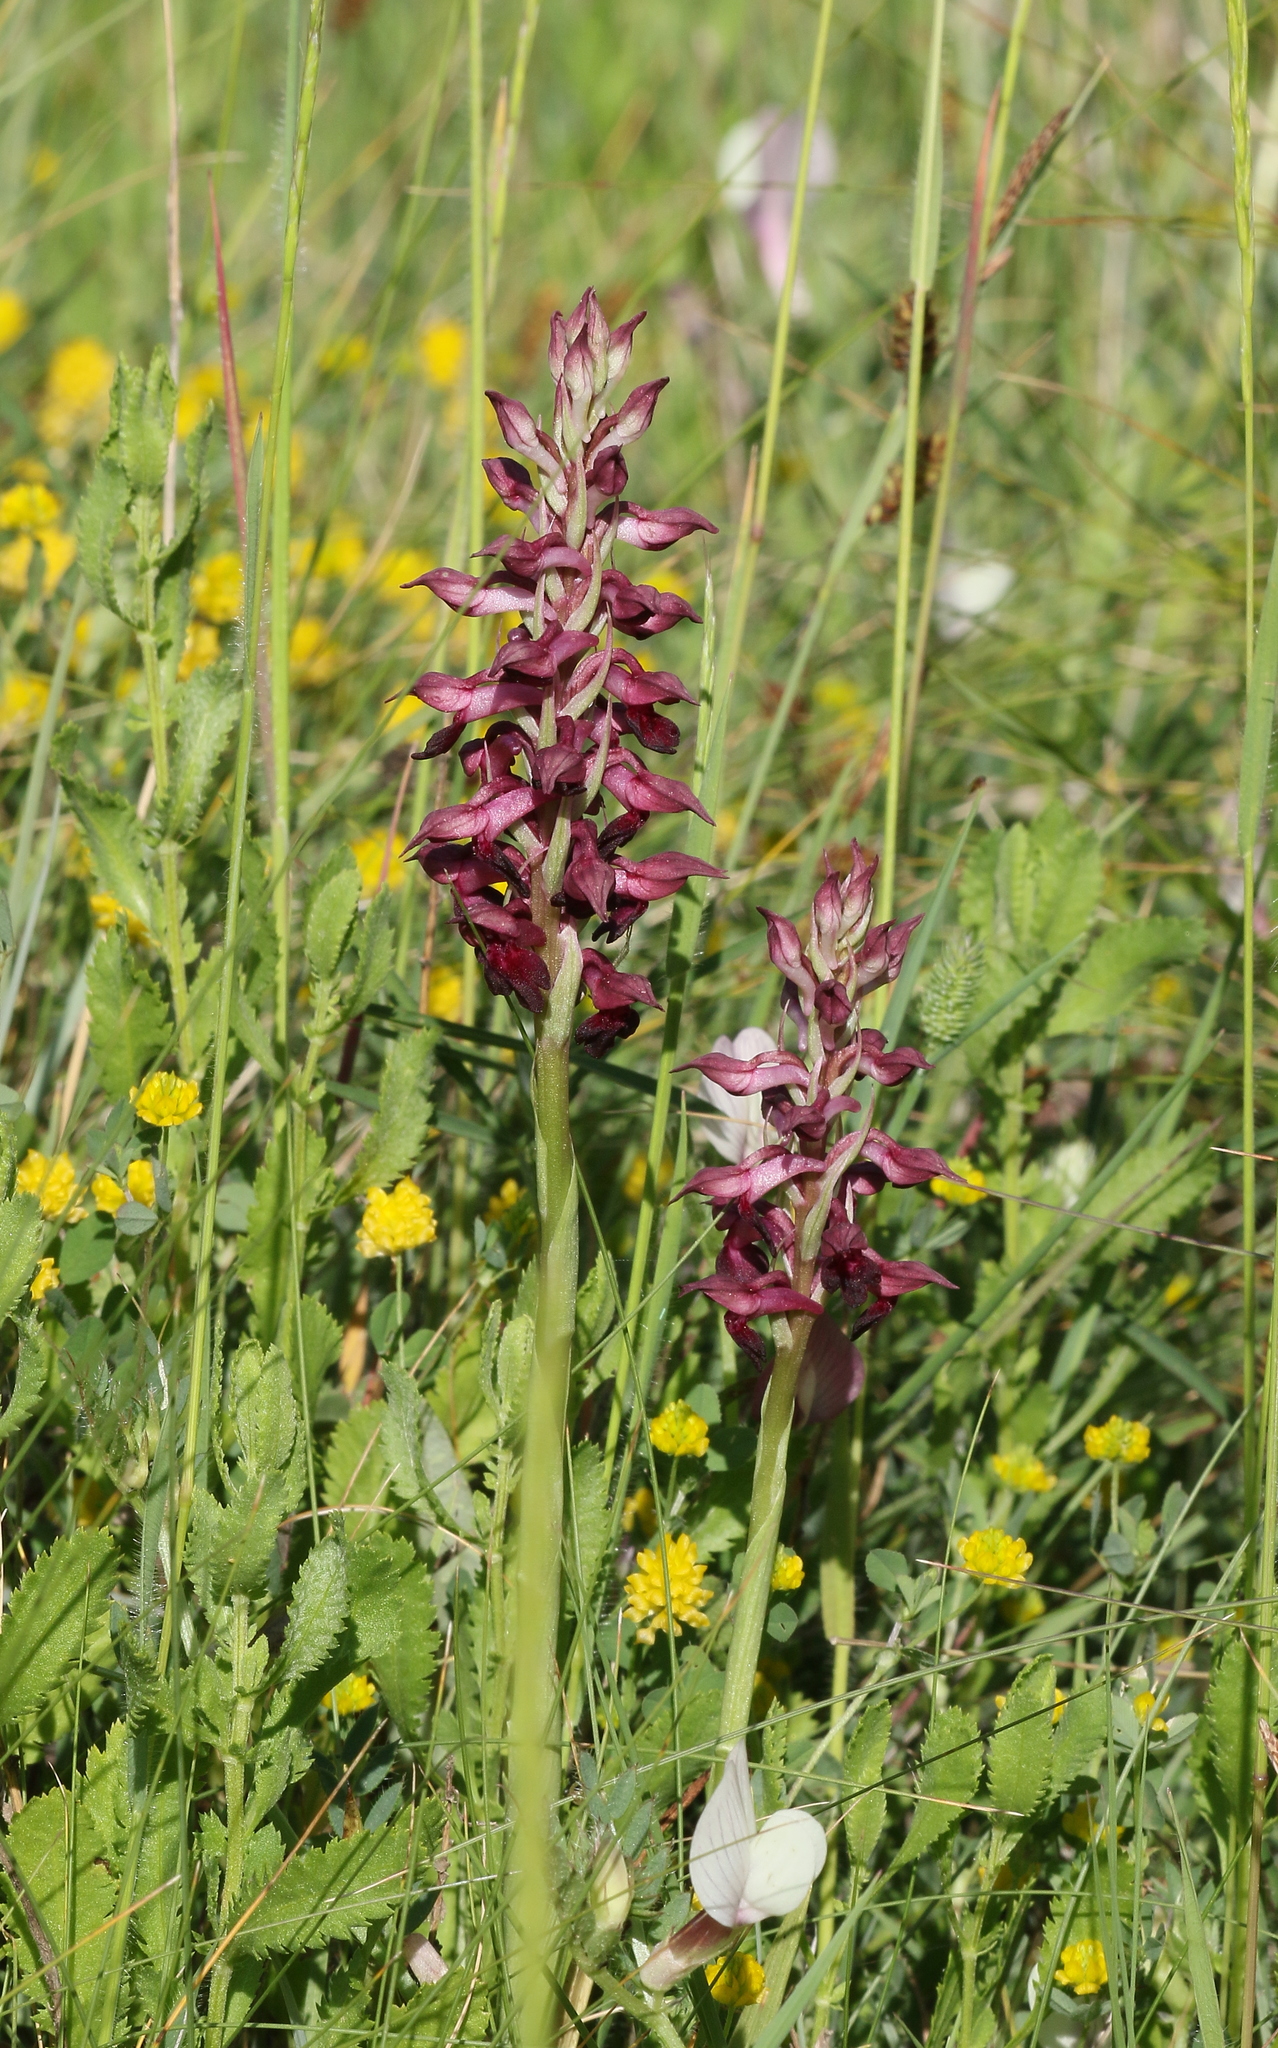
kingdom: Plantae
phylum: Tracheophyta
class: Liliopsida
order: Asparagales
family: Orchidaceae
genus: Anacamptis
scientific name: Anacamptis coriophora
